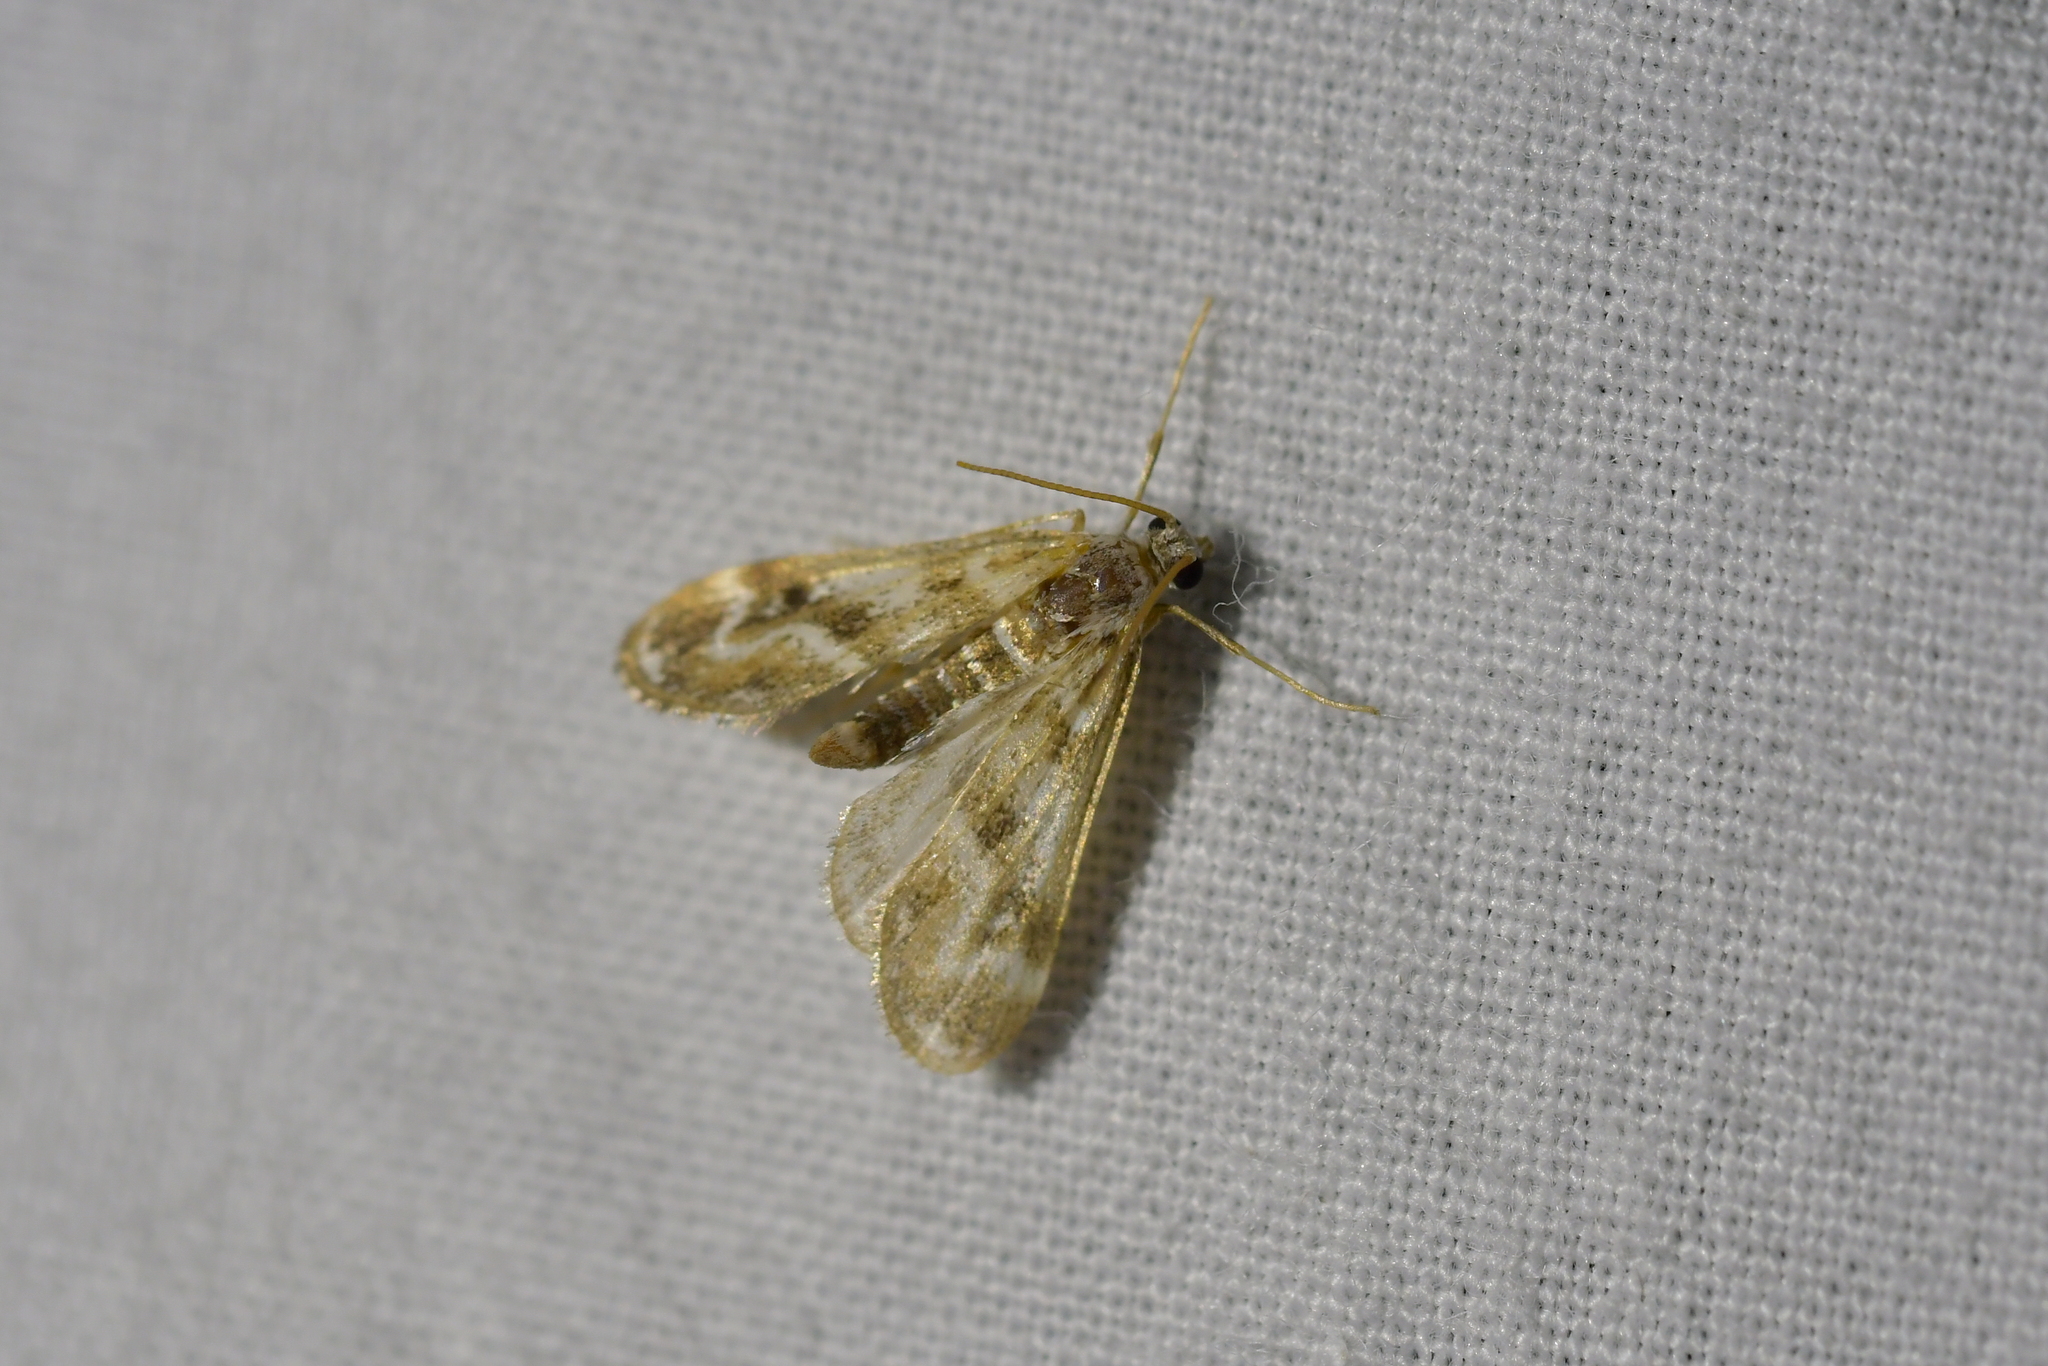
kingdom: Animalia
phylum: Arthropoda
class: Insecta
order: Lepidoptera
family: Crambidae
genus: Hygraula
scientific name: Hygraula nitens
